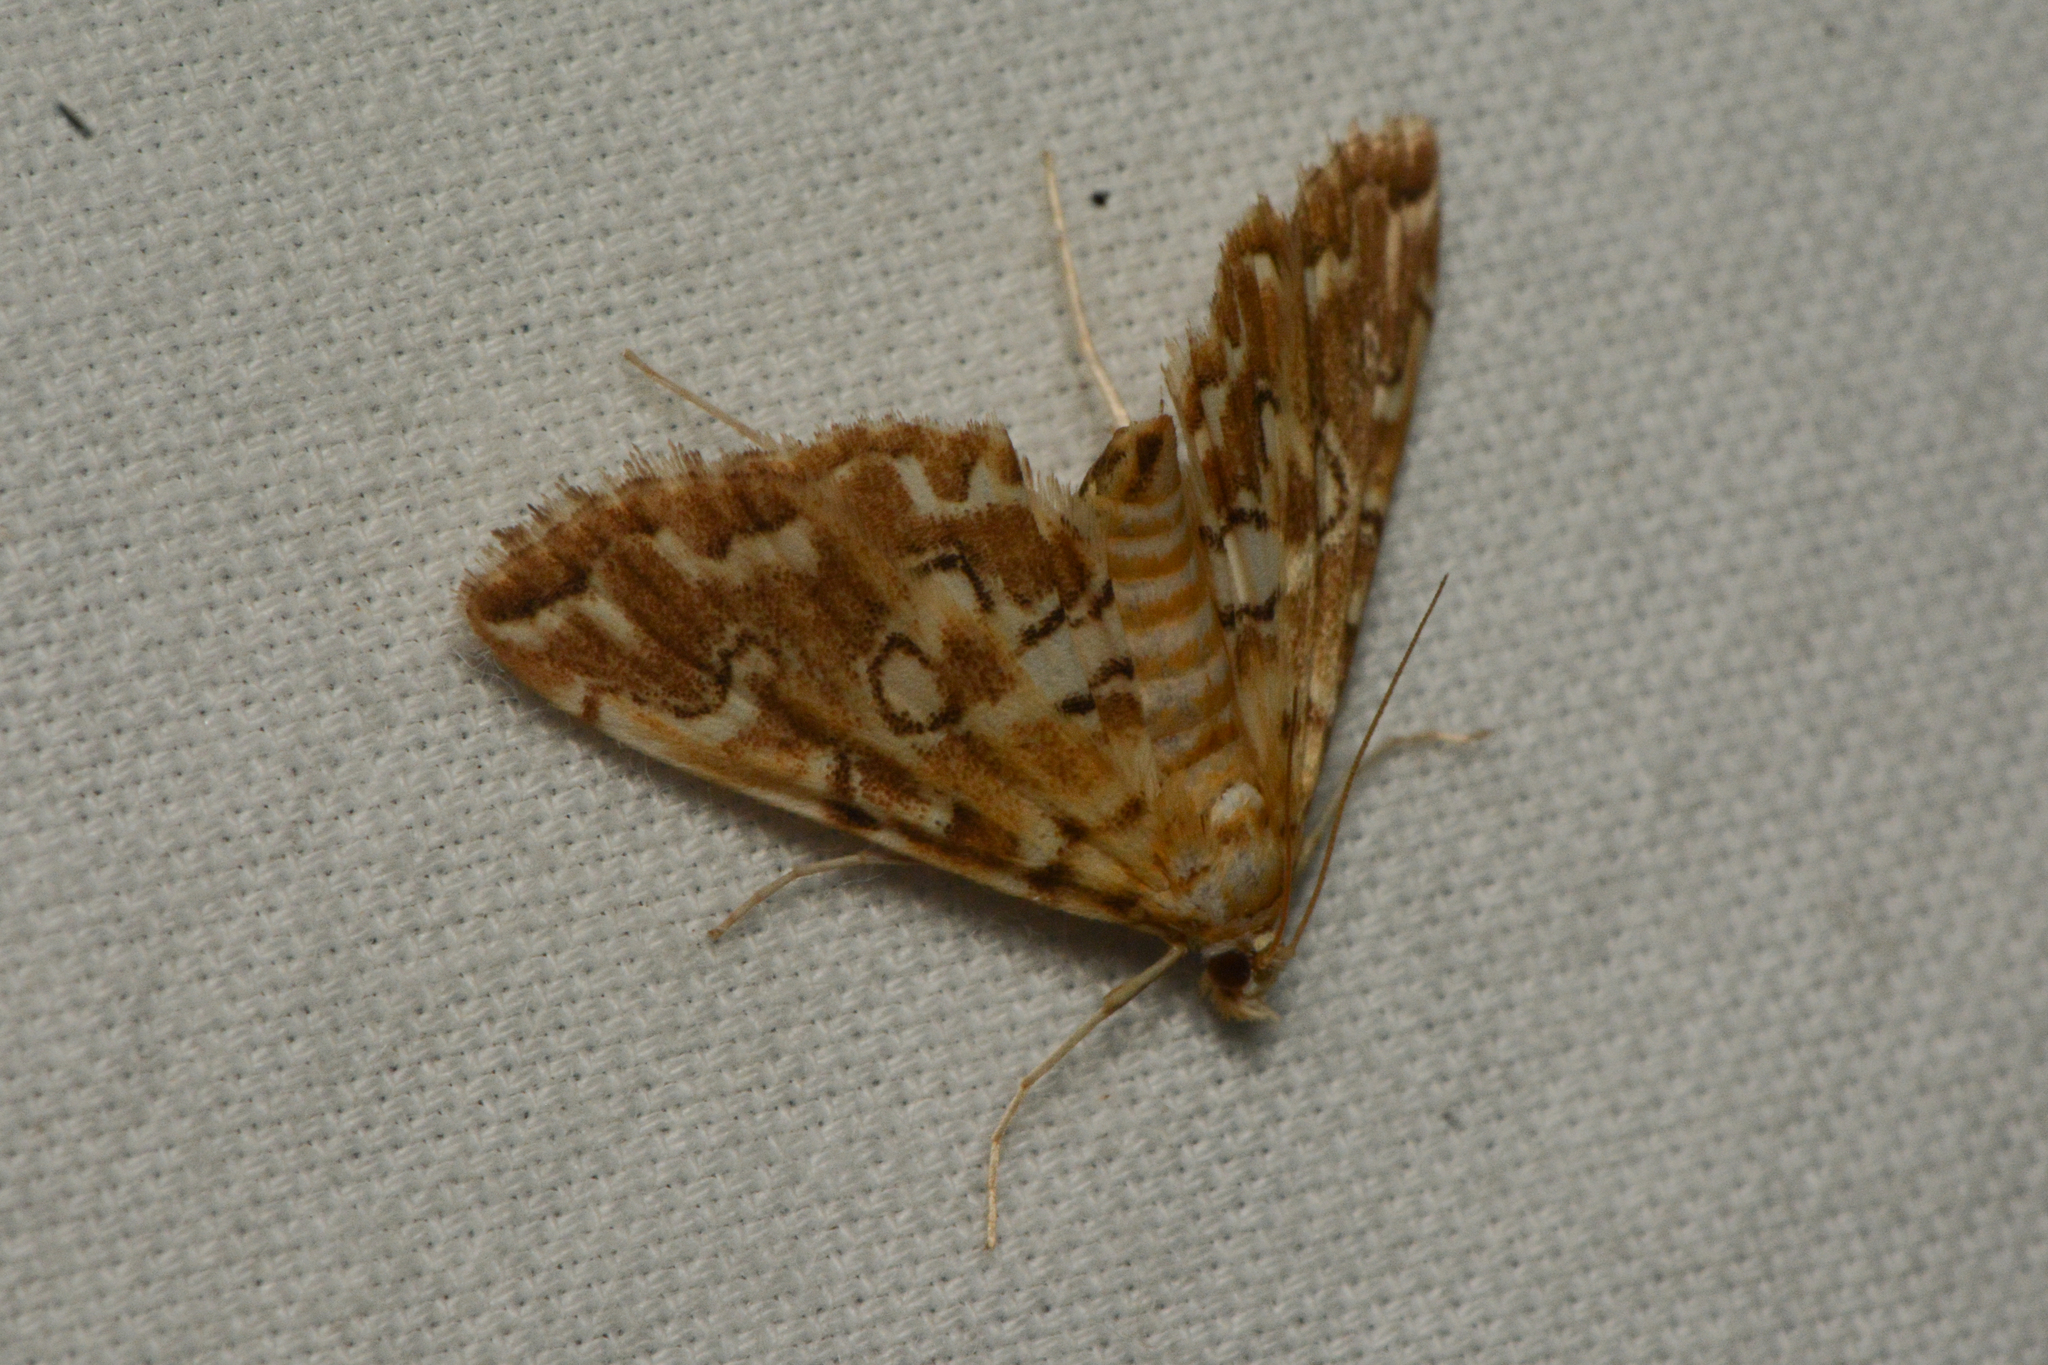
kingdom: Animalia
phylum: Arthropoda
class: Insecta
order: Lepidoptera
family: Crambidae
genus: Elophila
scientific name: Elophila icciusalis
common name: Pondside pyralid moth
